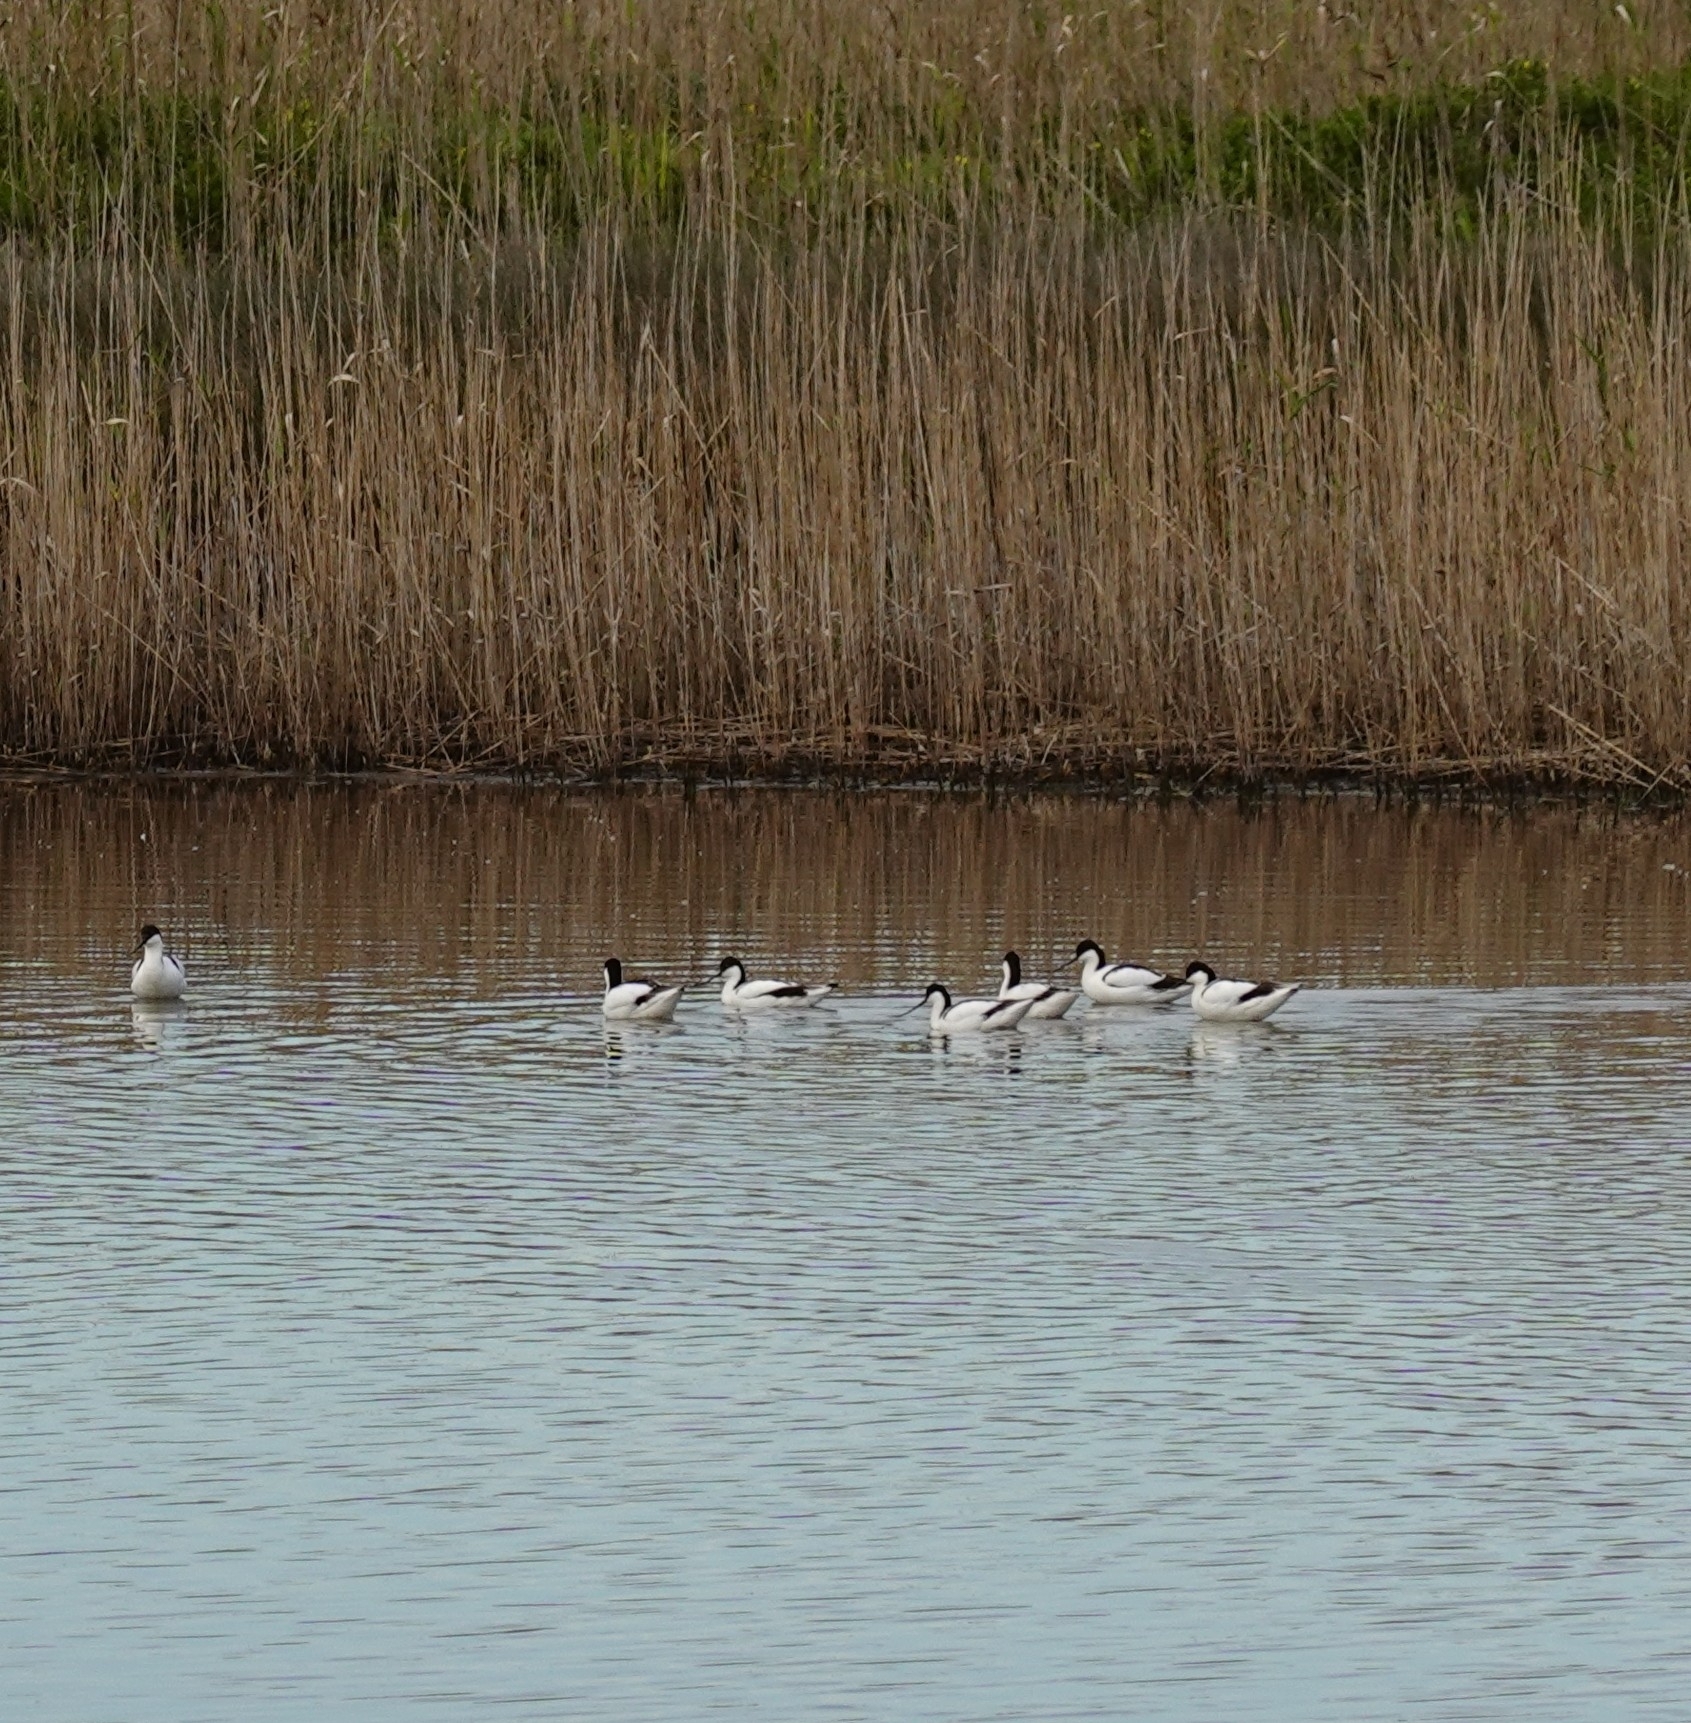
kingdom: Animalia
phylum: Chordata
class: Aves
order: Charadriiformes
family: Recurvirostridae
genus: Recurvirostra
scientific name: Recurvirostra avosetta
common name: Pied avocet
